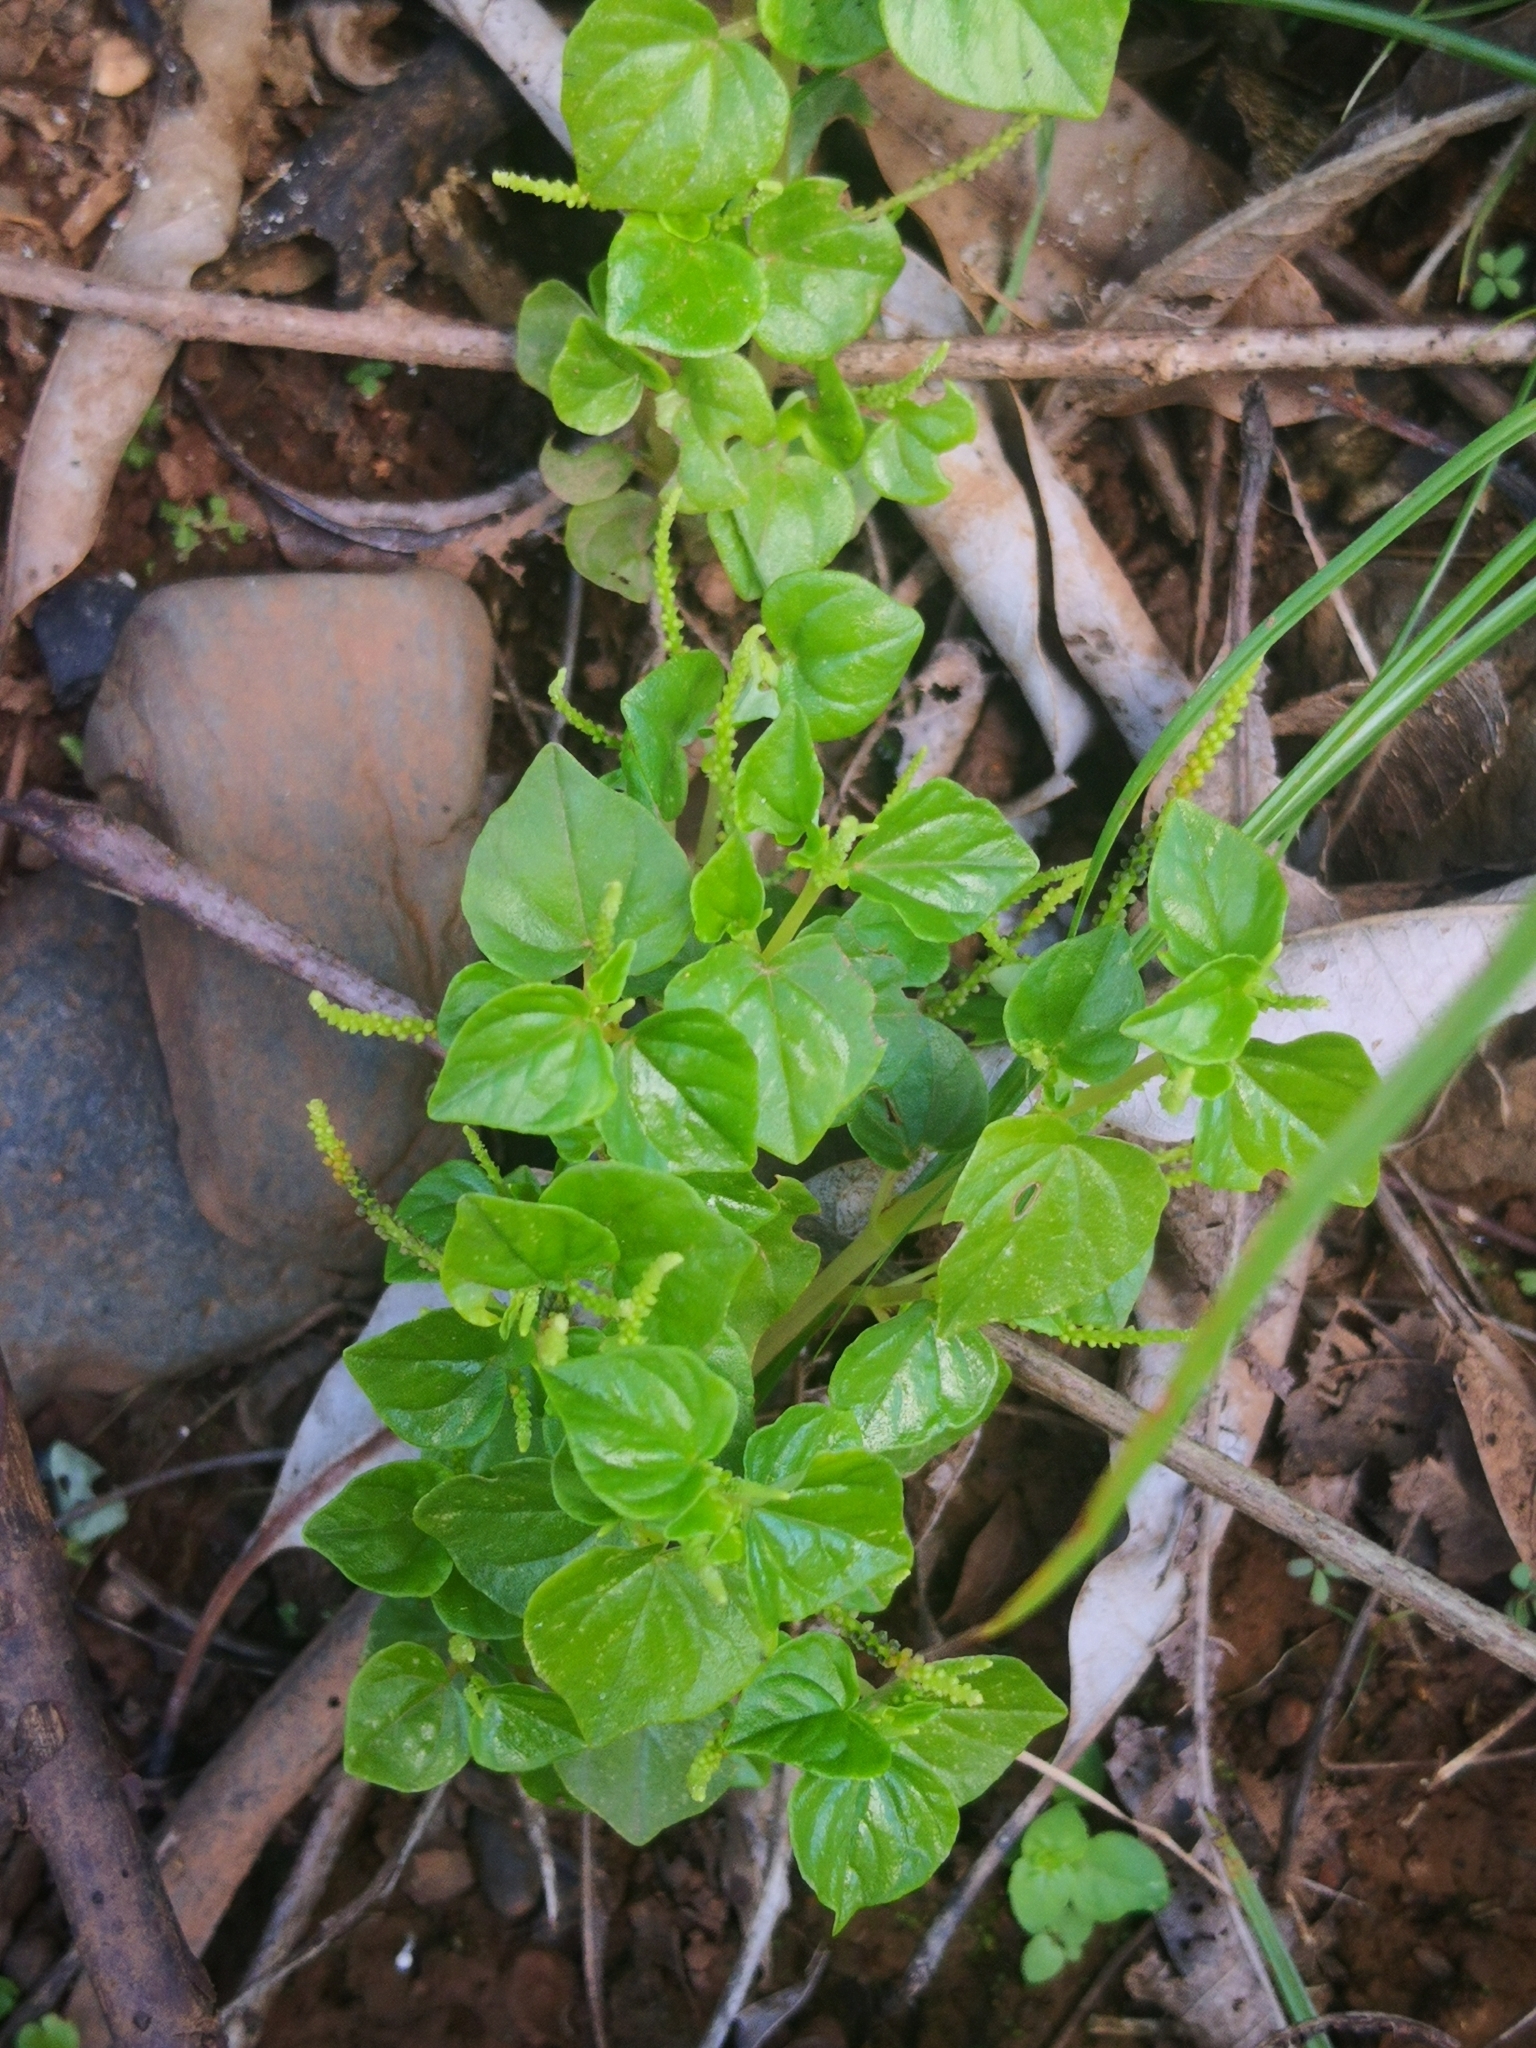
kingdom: Plantae
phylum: Tracheophyta
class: Magnoliopsida
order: Piperales
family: Piperaceae
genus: Peperomia
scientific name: Peperomia pellucida
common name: Man to man
